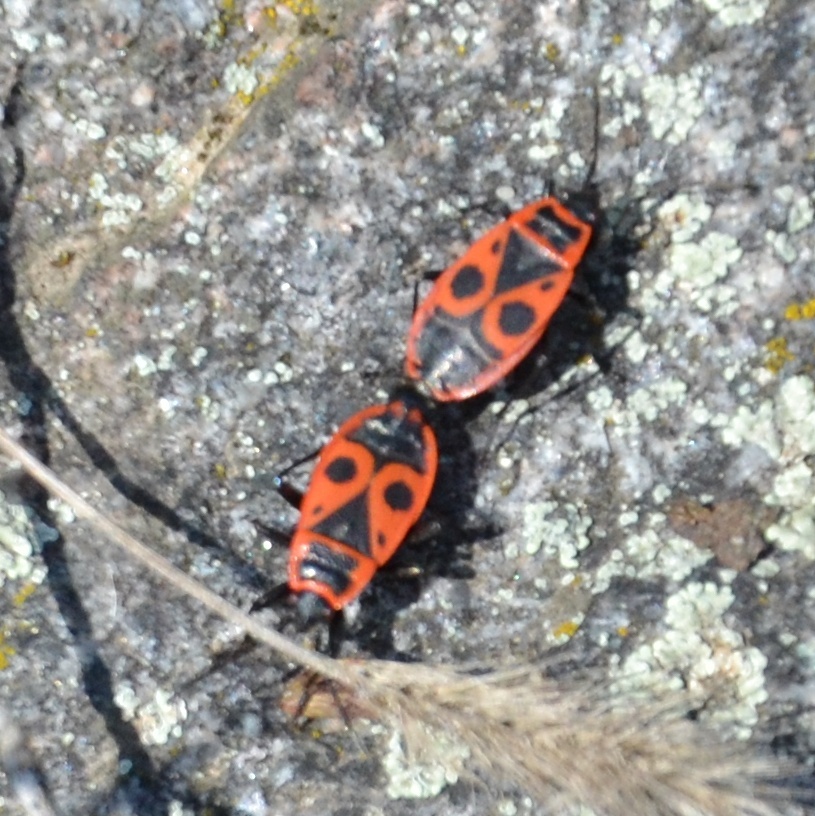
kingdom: Animalia
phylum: Arthropoda
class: Insecta
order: Hemiptera
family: Pyrrhocoridae
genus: Pyrrhocoris
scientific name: Pyrrhocoris apterus
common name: Firebug
